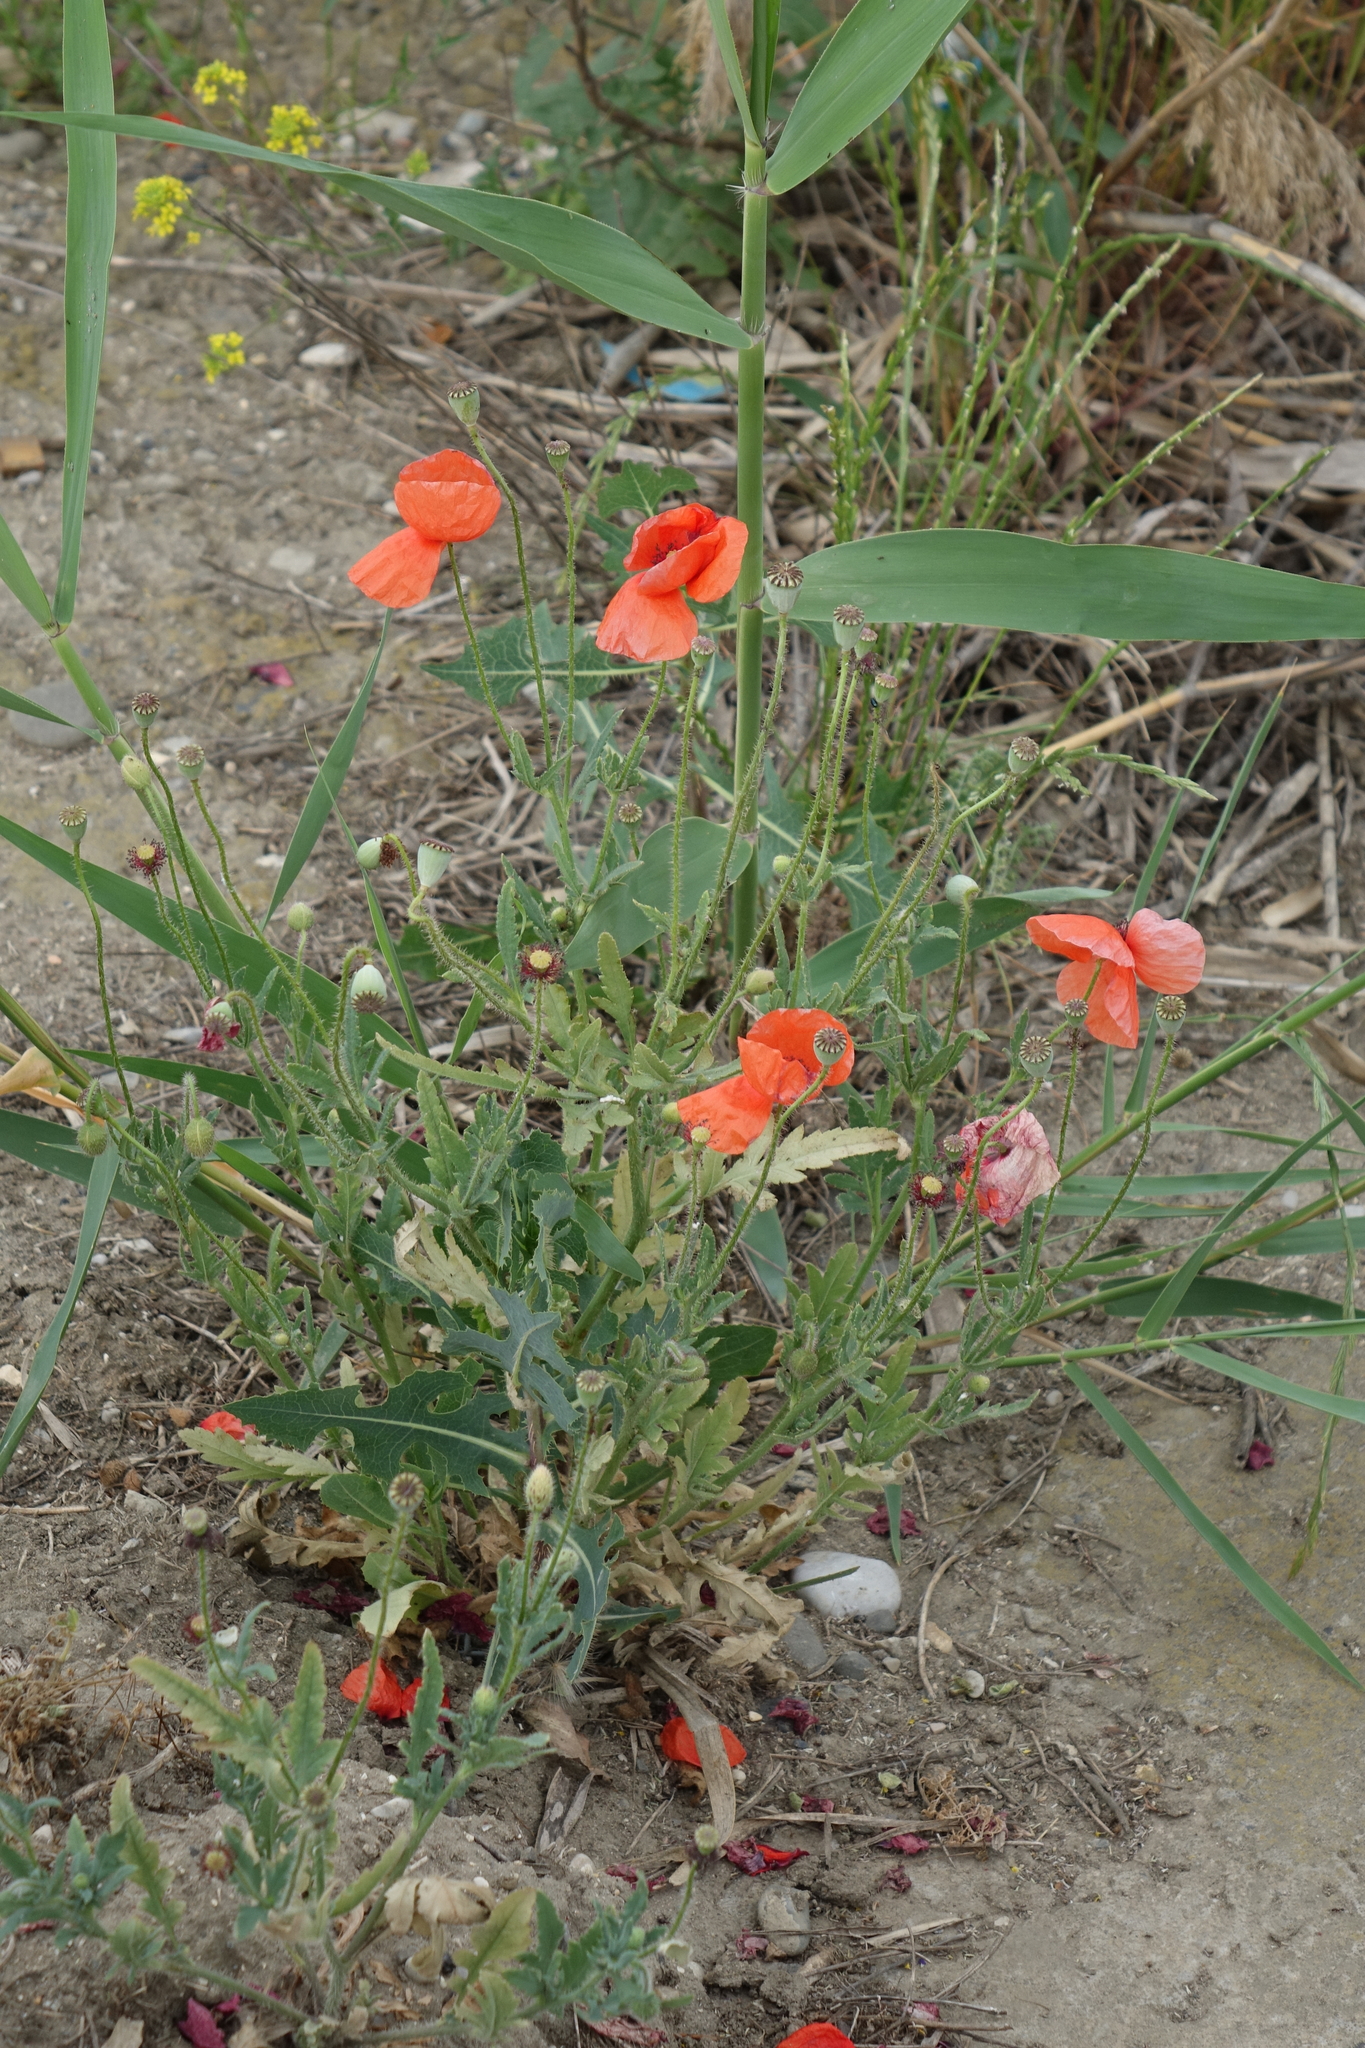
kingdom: Plantae
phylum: Tracheophyta
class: Magnoliopsida
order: Ranunculales
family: Papaveraceae
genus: Papaver
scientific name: Papaver rhoeas
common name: Corn poppy
